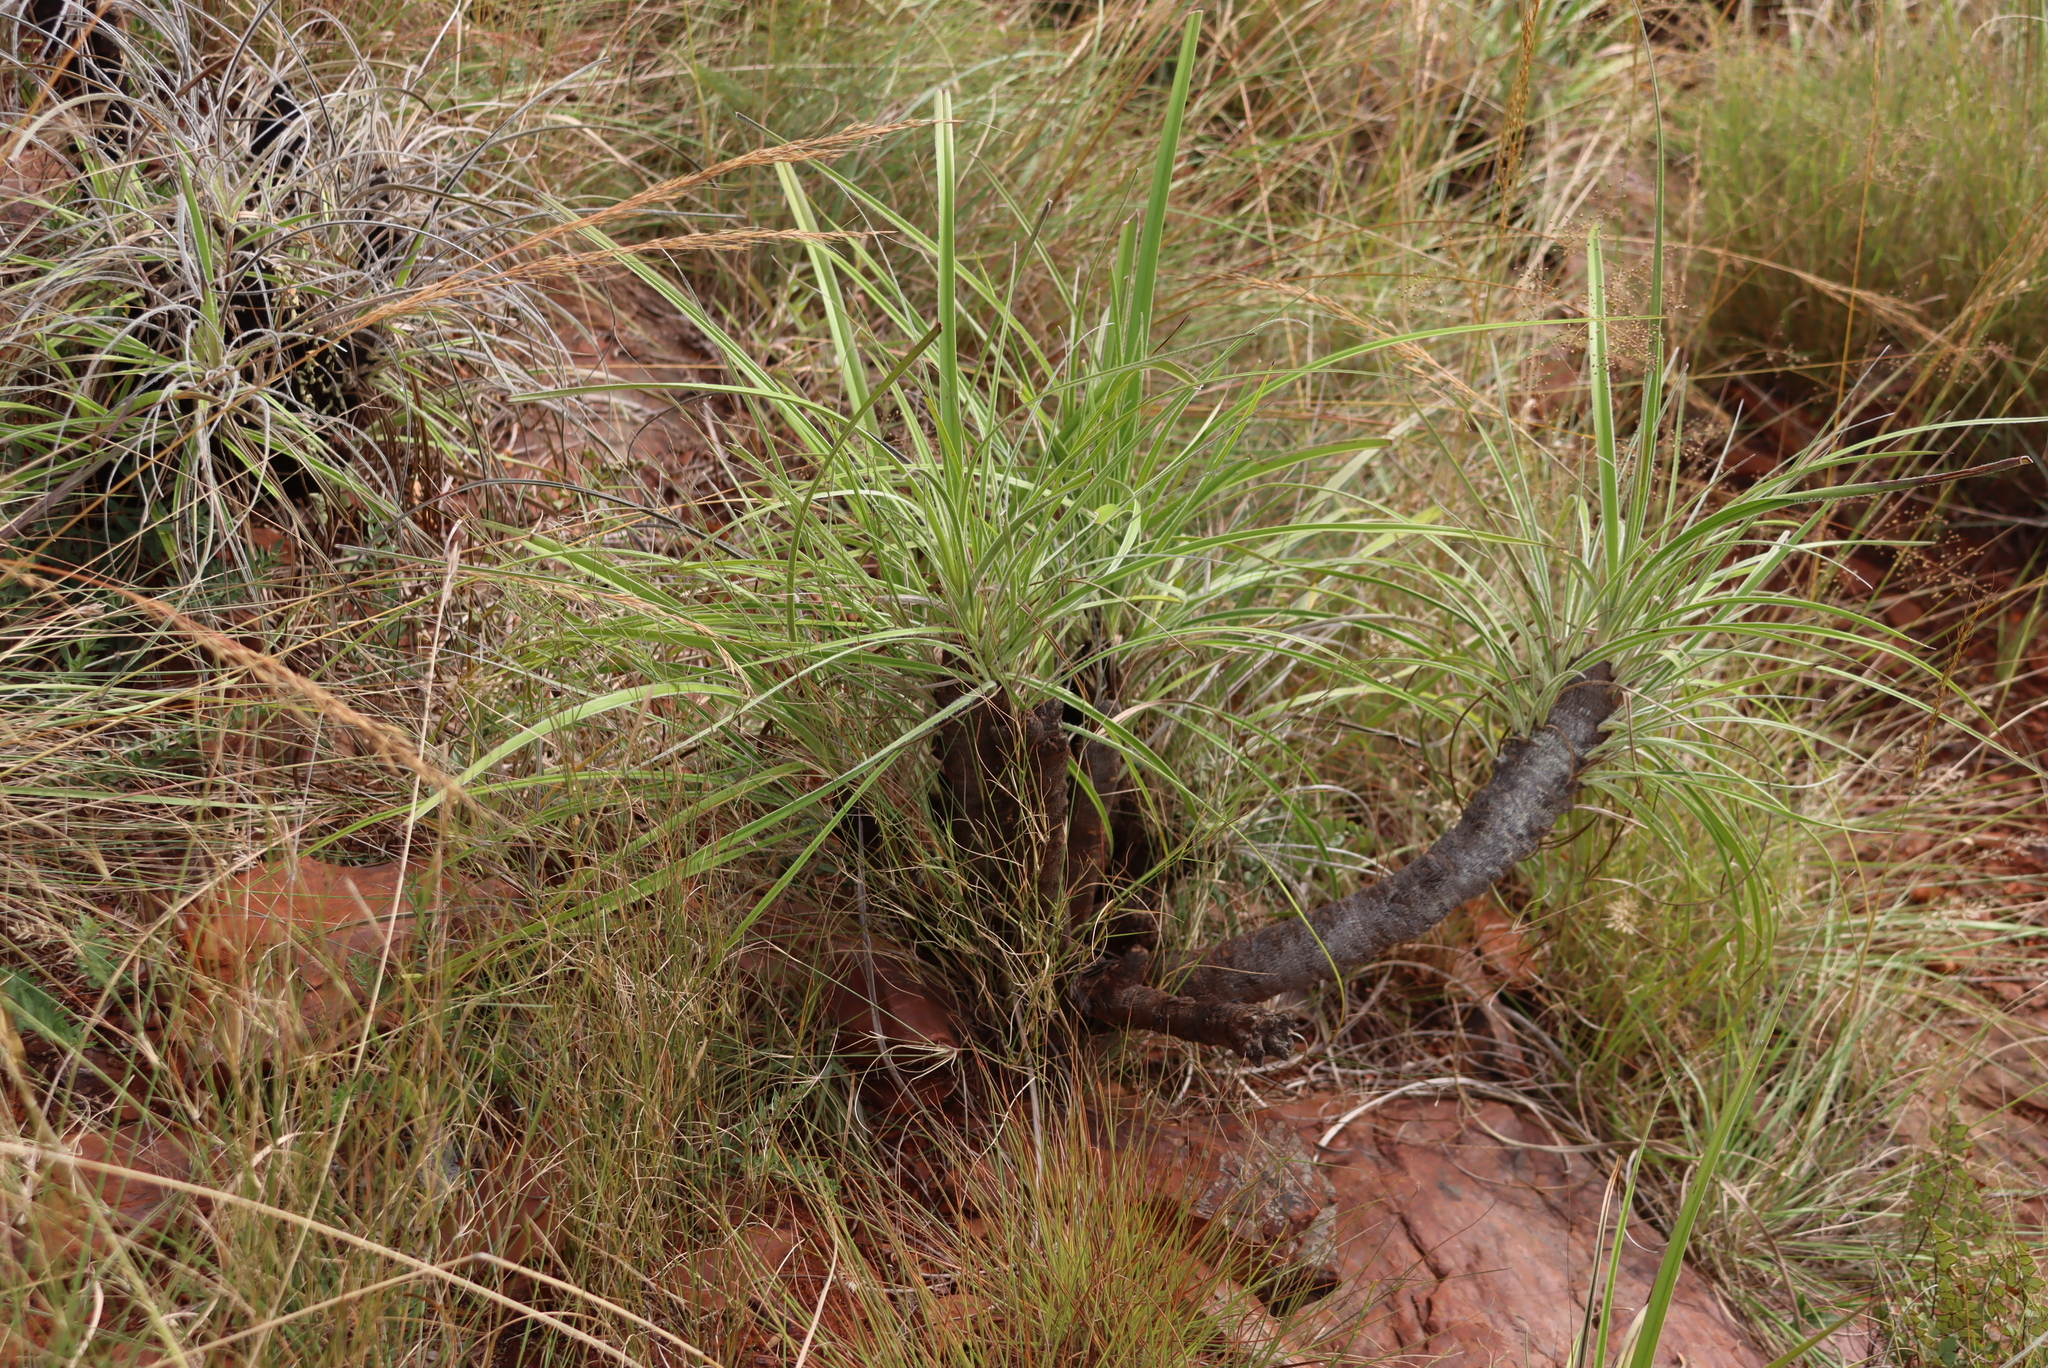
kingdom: Plantae
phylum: Tracheophyta
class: Liliopsida
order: Pandanales
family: Velloziaceae
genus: Xerophyta
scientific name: Xerophyta retinervis
